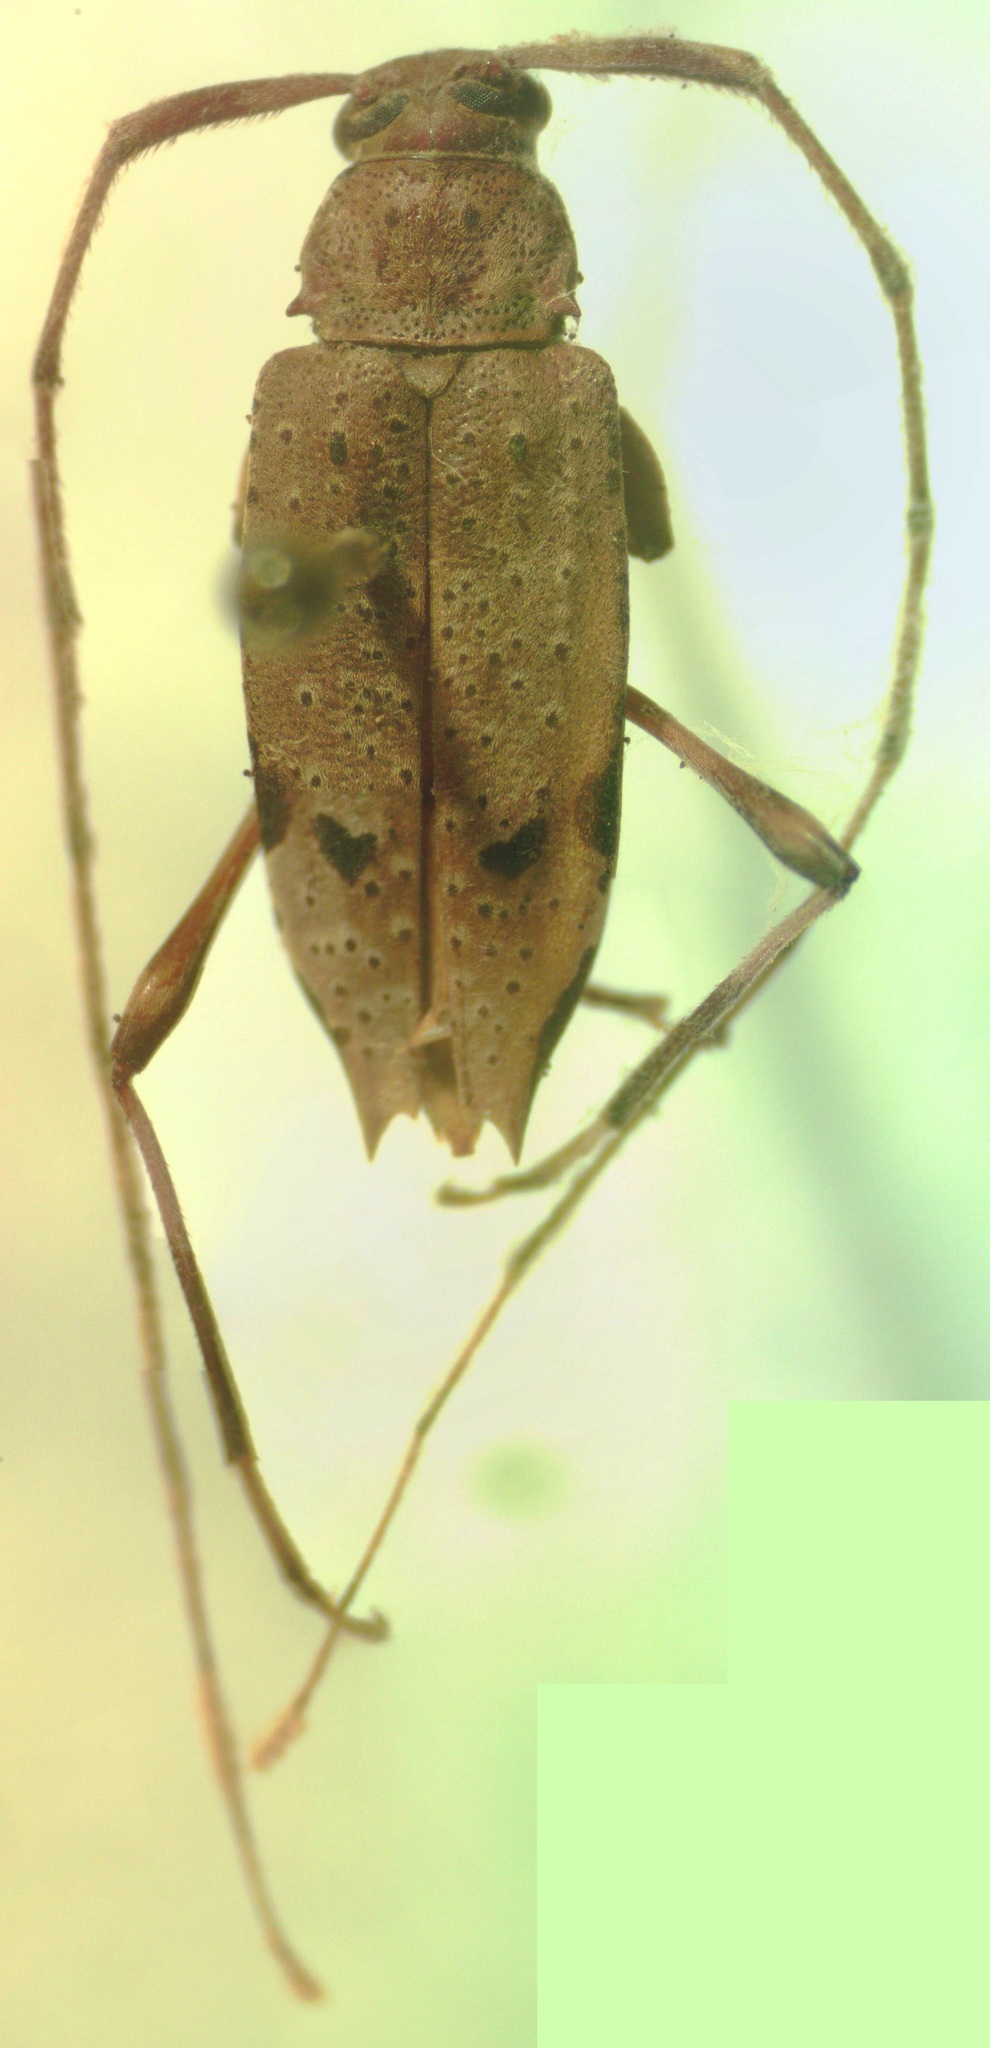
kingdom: Animalia
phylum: Arthropoda
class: Insecta
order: Coleoptera
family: Cerambycidae
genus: Anisopodus
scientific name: Anisopodus hiekei
